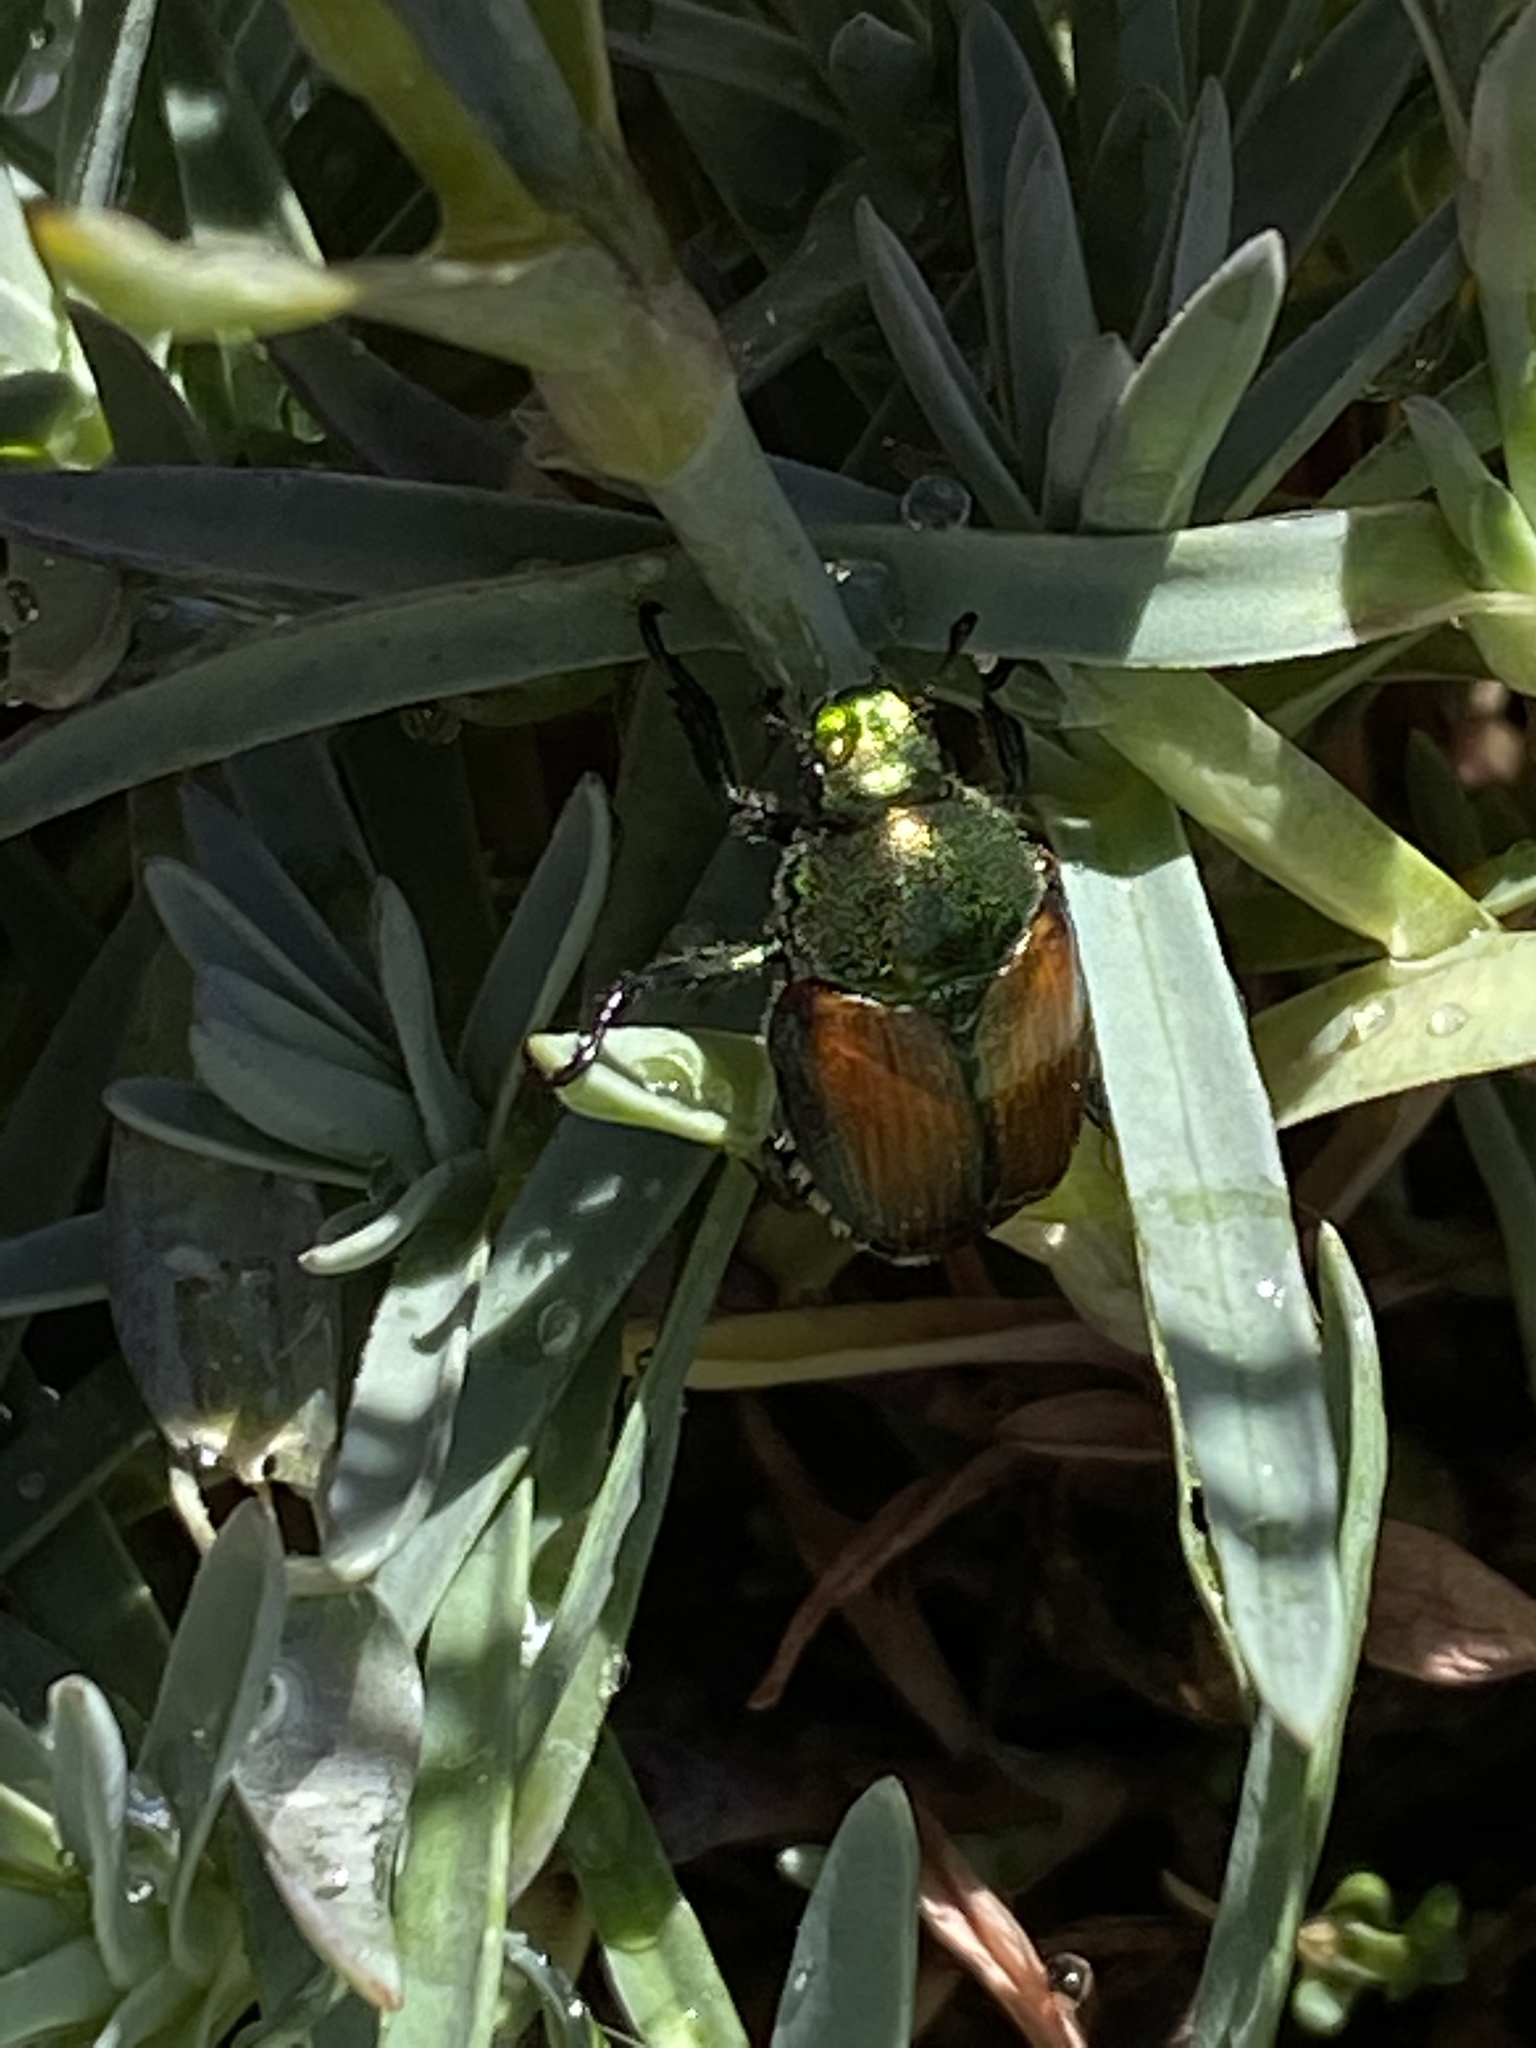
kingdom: Animalia
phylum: Arthropoda
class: Insecta
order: Coleoptera
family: Scarabaeidae
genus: Popillia
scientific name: Popillia japonica
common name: Japanese beetle
